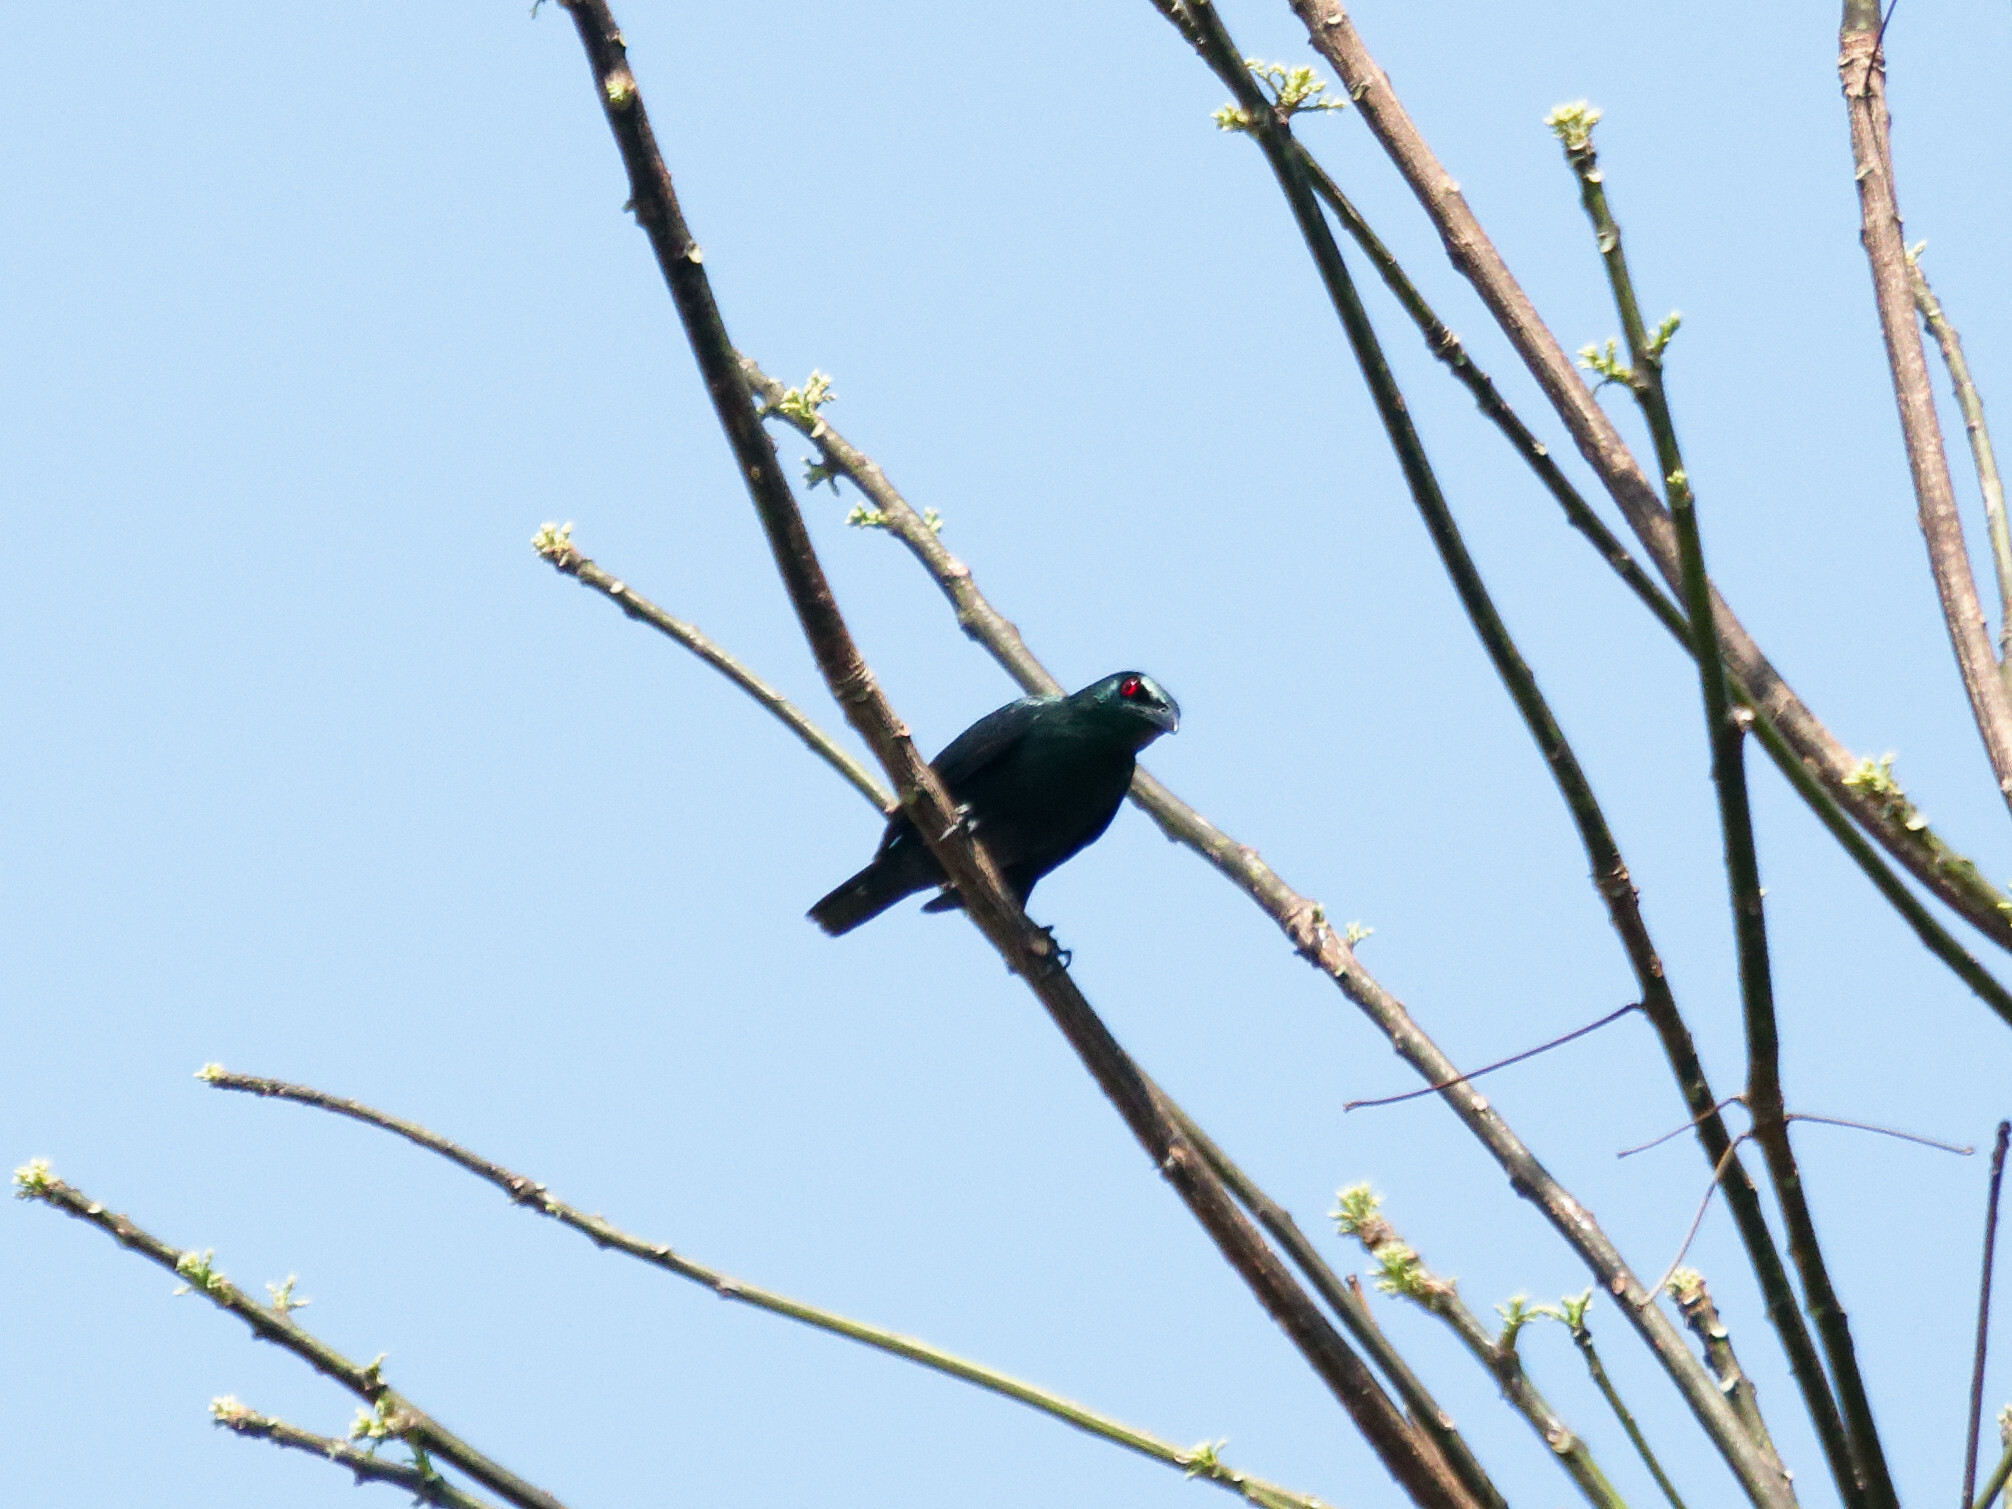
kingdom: Animalia
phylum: Chordata
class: Aves
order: Passeriformes
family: Sturnidae
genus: Aplonis
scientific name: Aplonis panayensis
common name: Asian glossy starling
